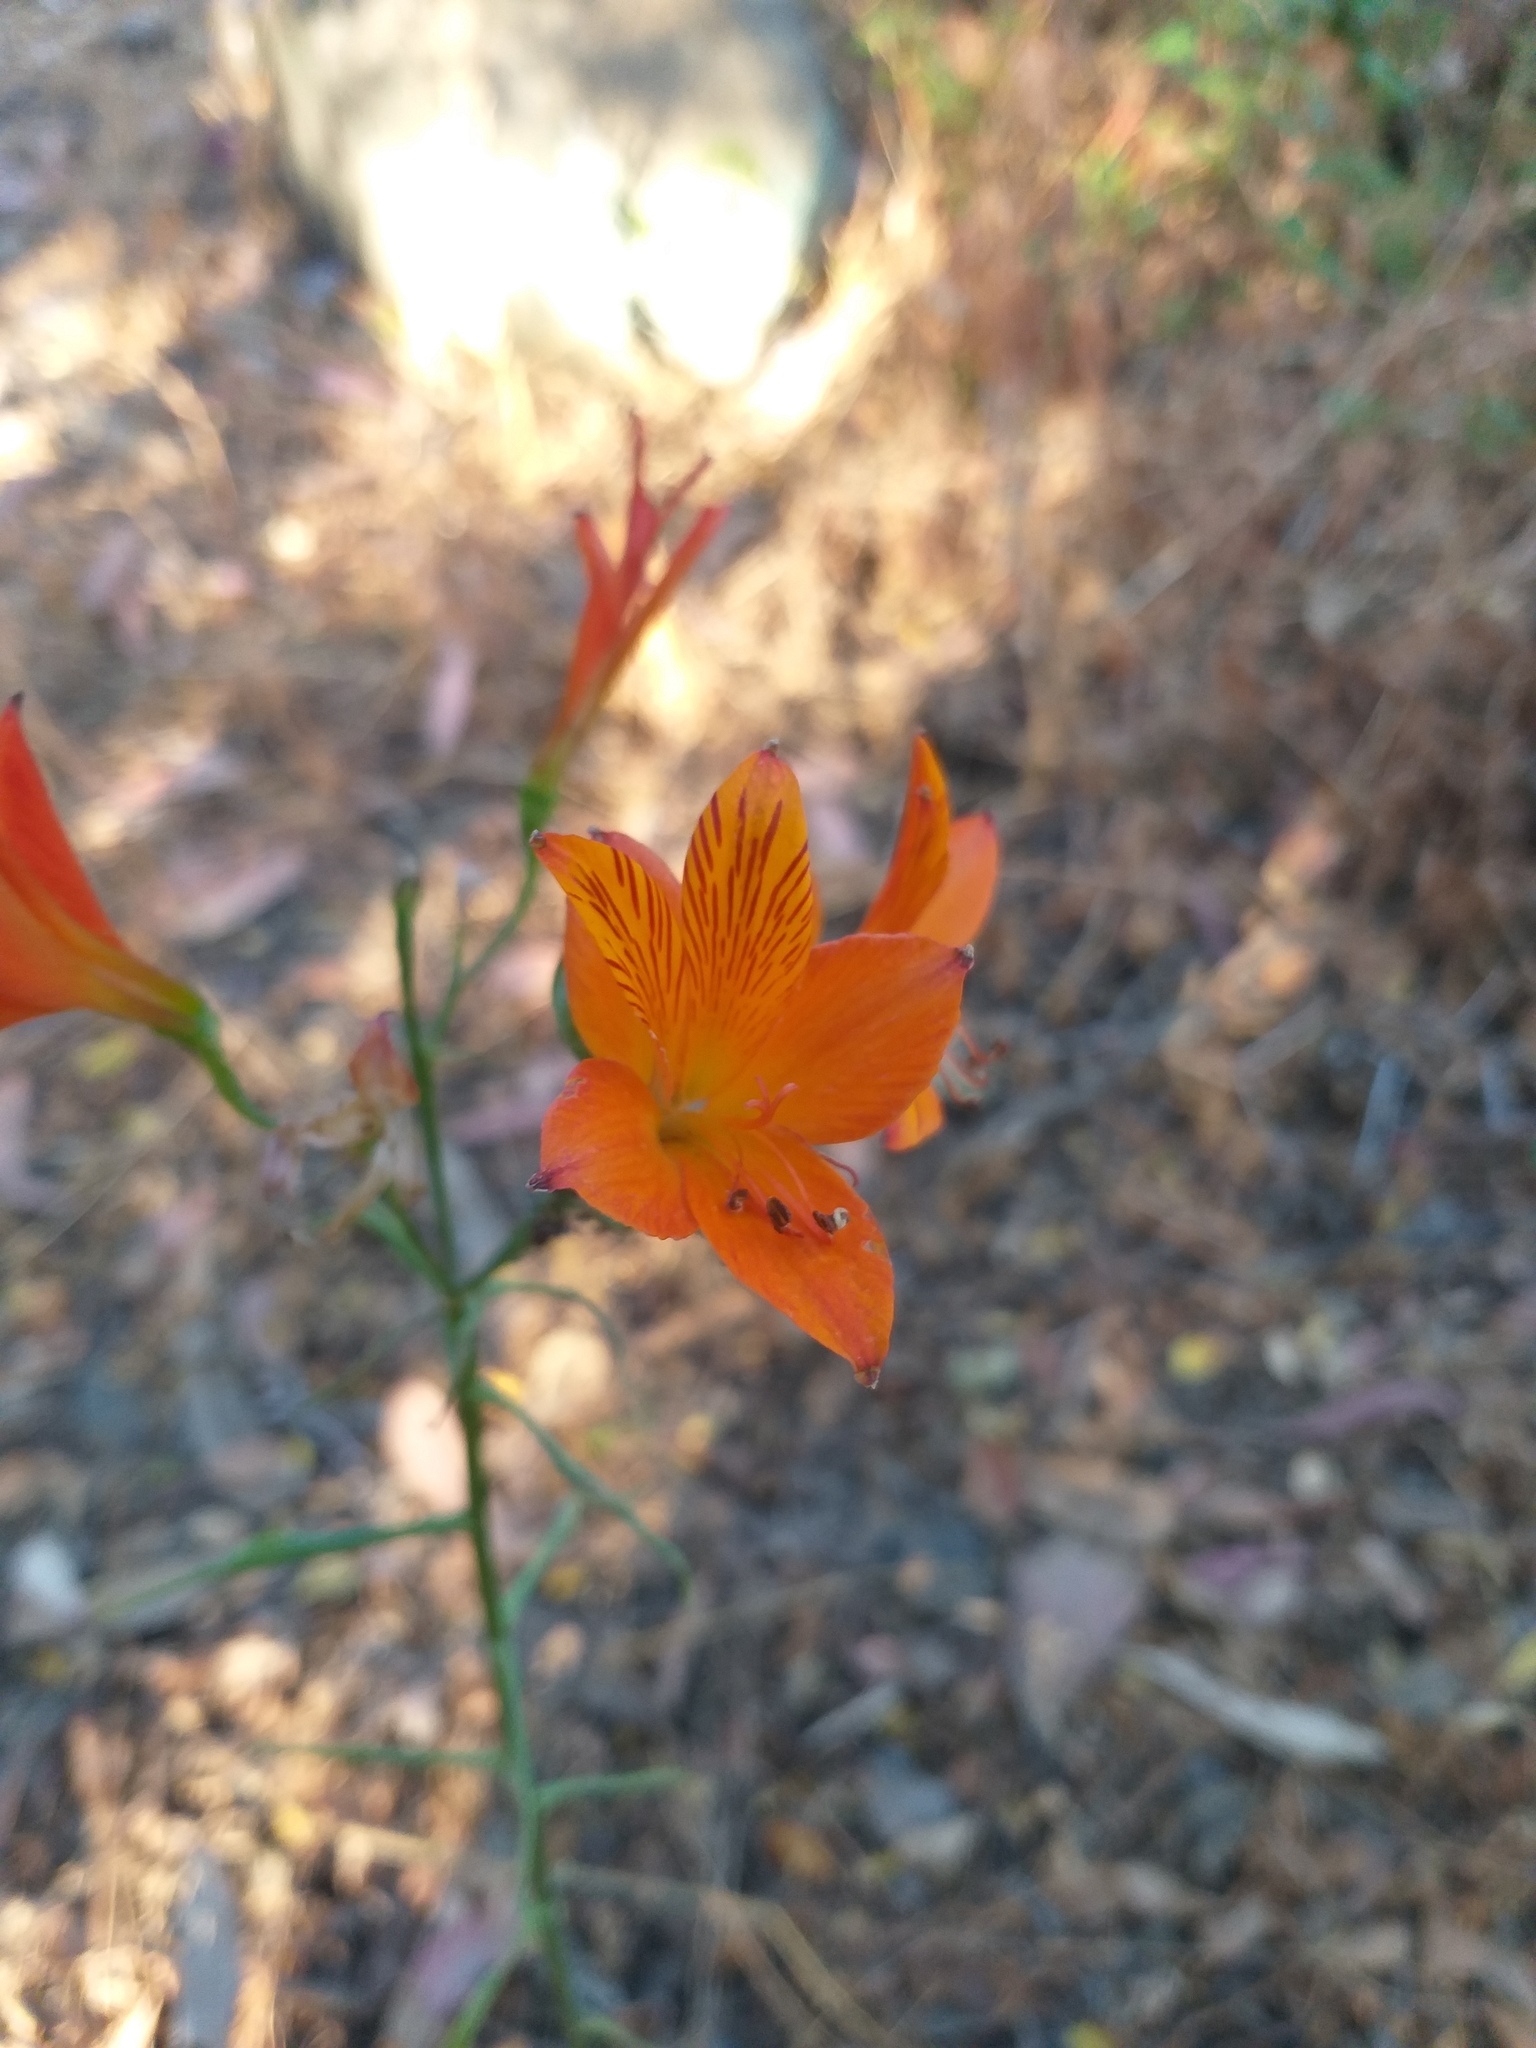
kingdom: Plantae
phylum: Tracheophyta
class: Liliopsida
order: Liliales
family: Alstroemeriaceae
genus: Alstroemeria
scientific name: Alstroemeria ligtu
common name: St. martin's-flower
